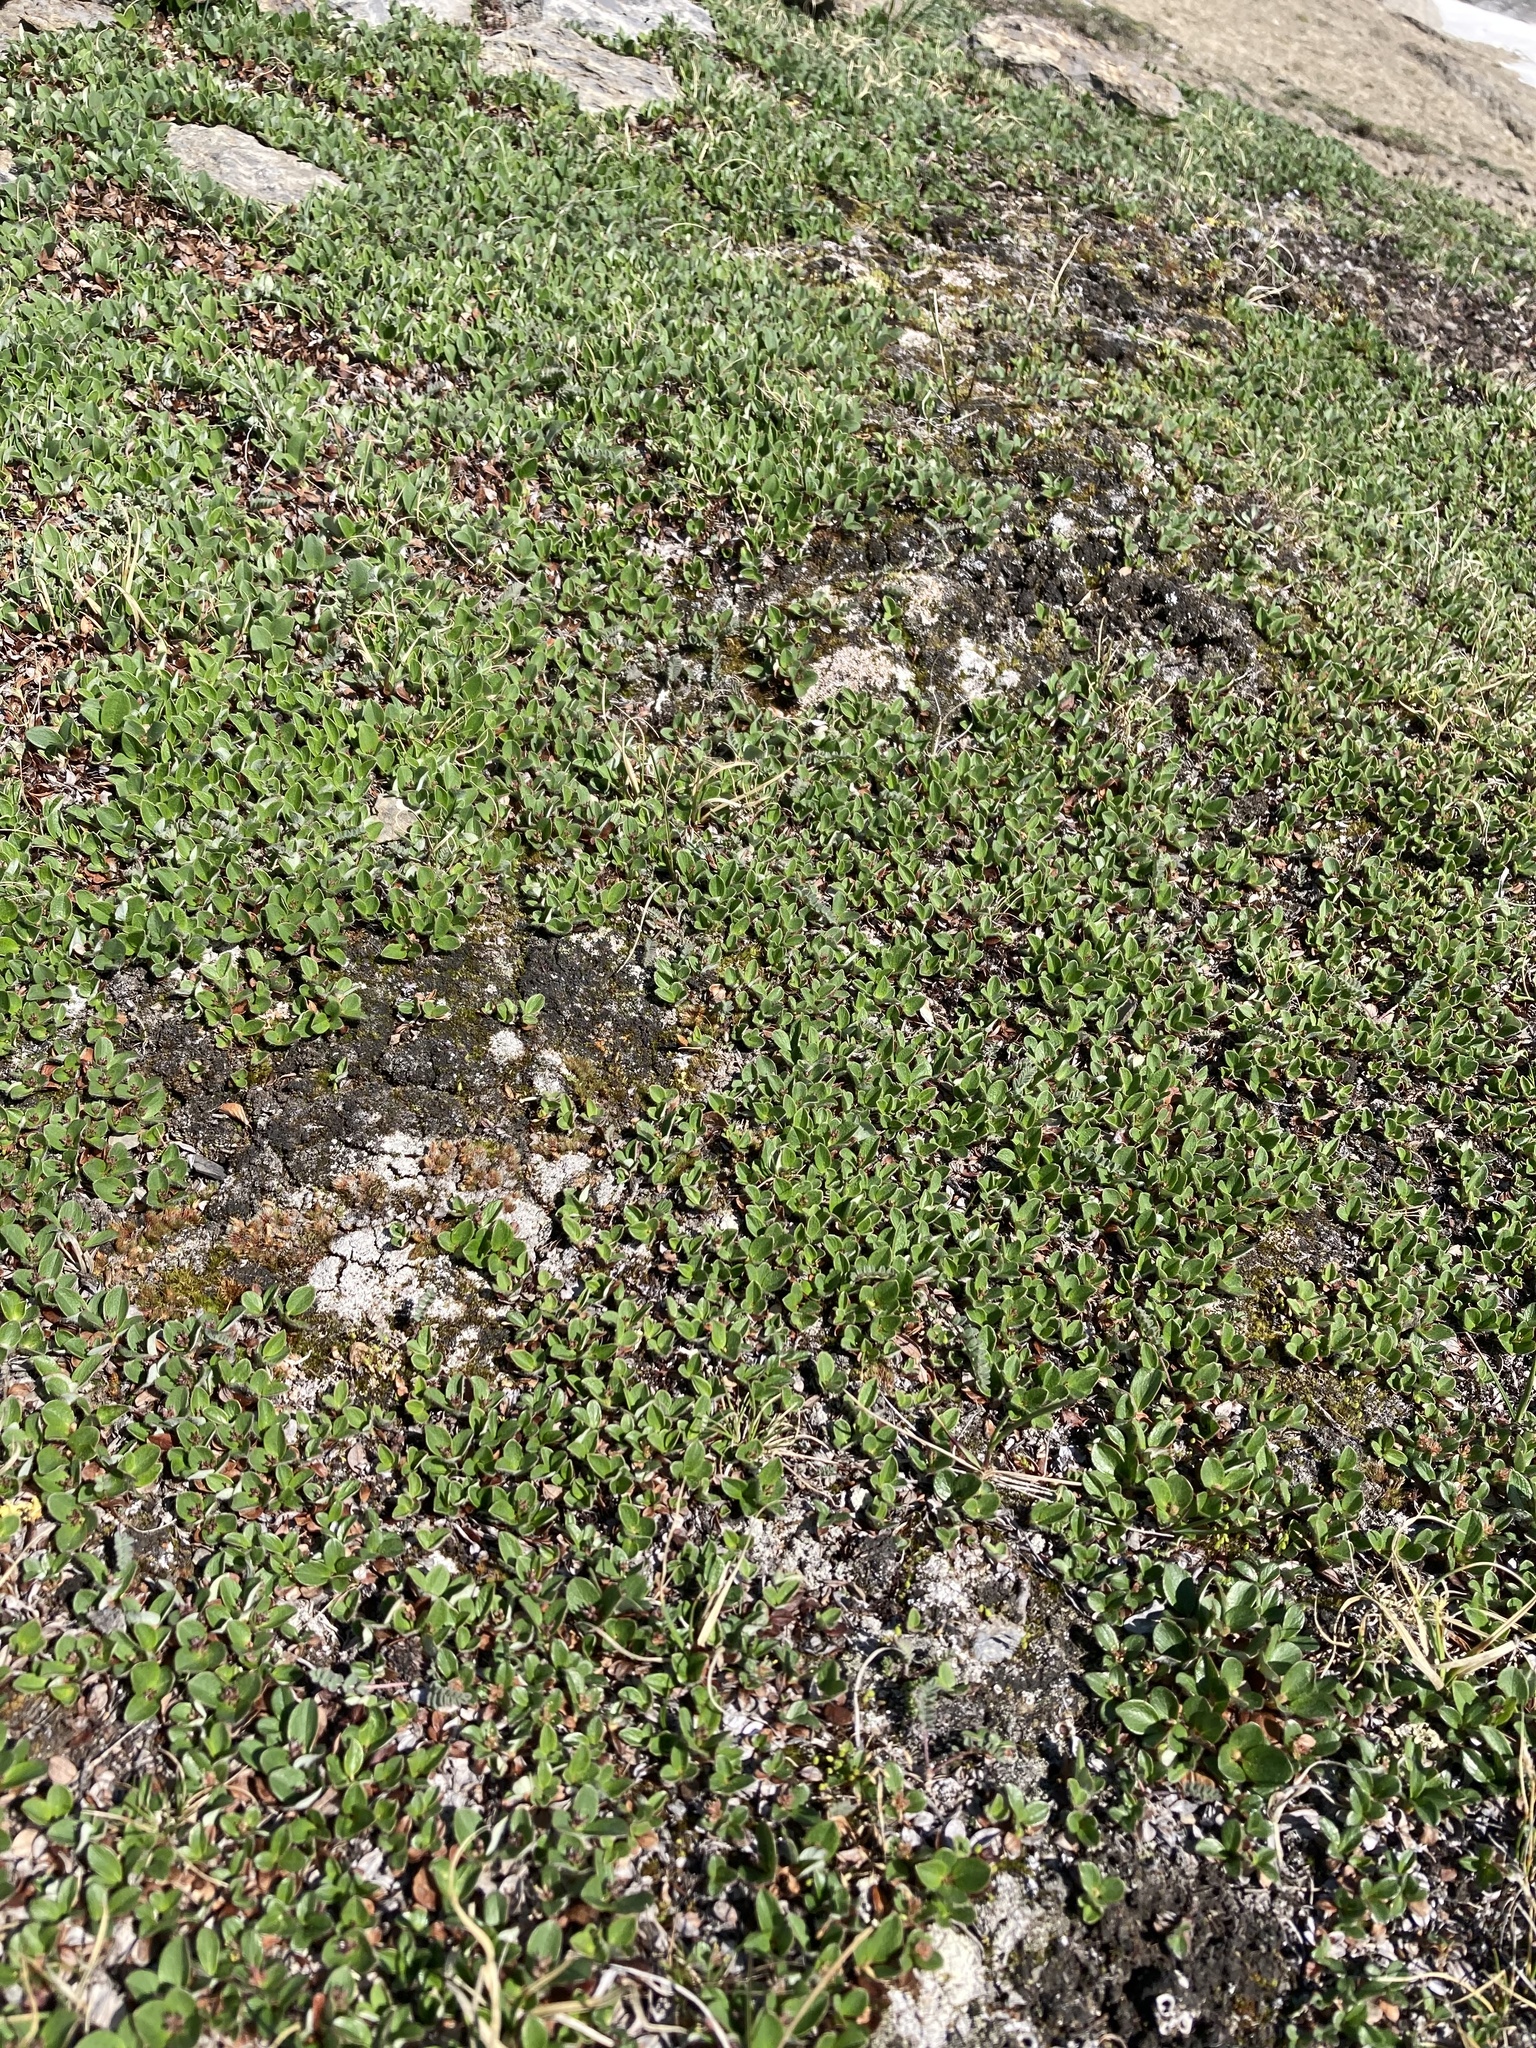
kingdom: Plantae
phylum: Tracheophyta
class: Magnoliopsida
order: Malpighiales
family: Salicaceae
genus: Salix
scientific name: Salix nivalis
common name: Dwarf snow willow
